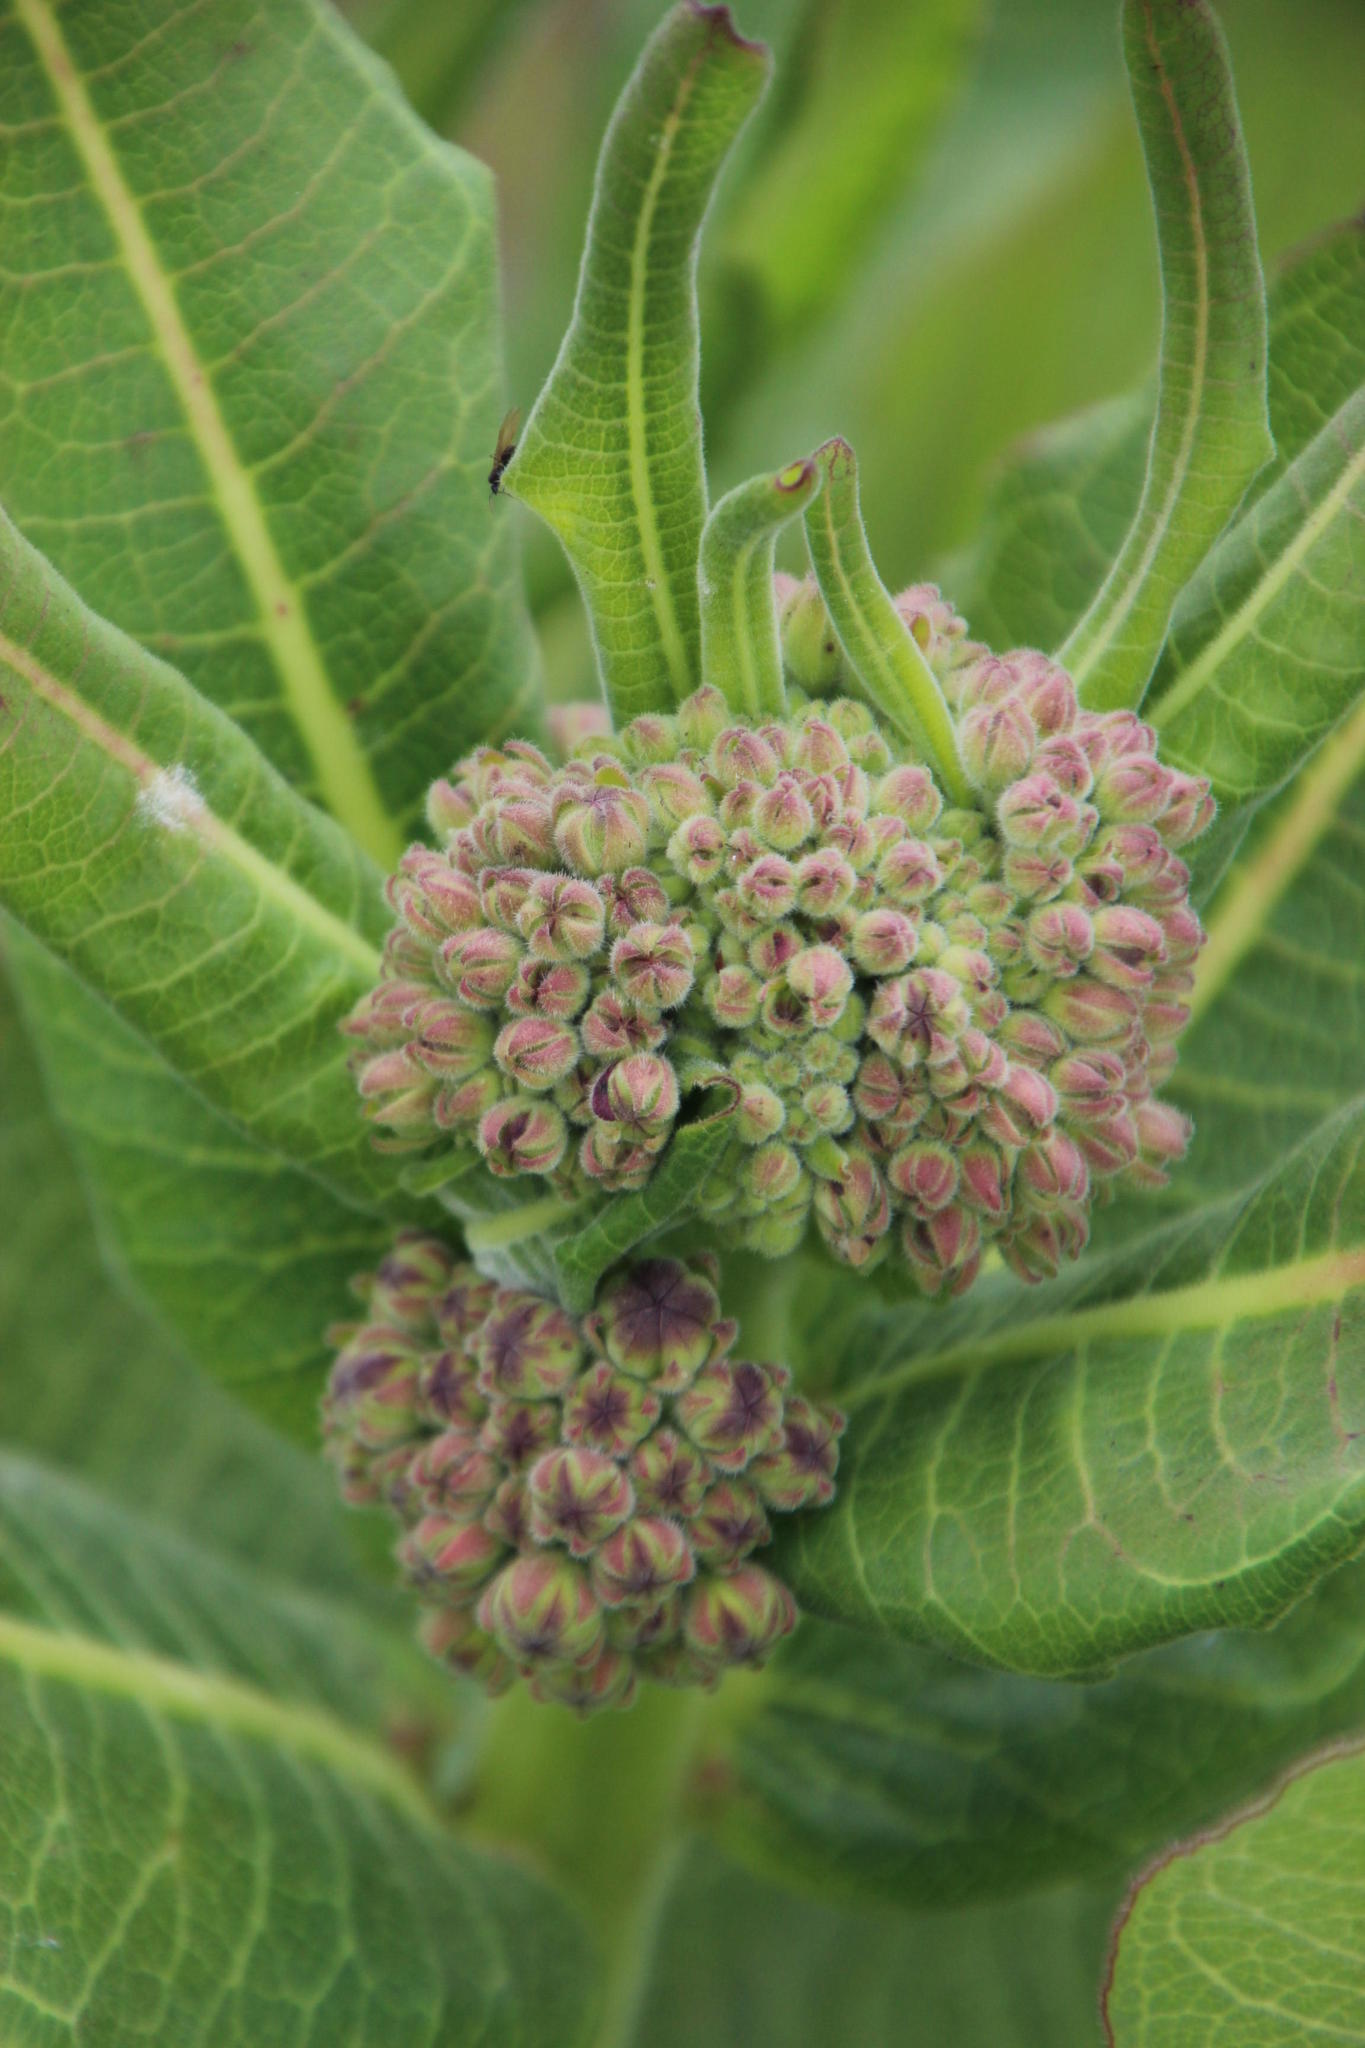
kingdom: Plantae
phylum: Tracheophyta
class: Magnoliopsida
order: Gentianales
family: Apocynaceae
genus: Xysmalobium
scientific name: Xysmalobium undulatum
